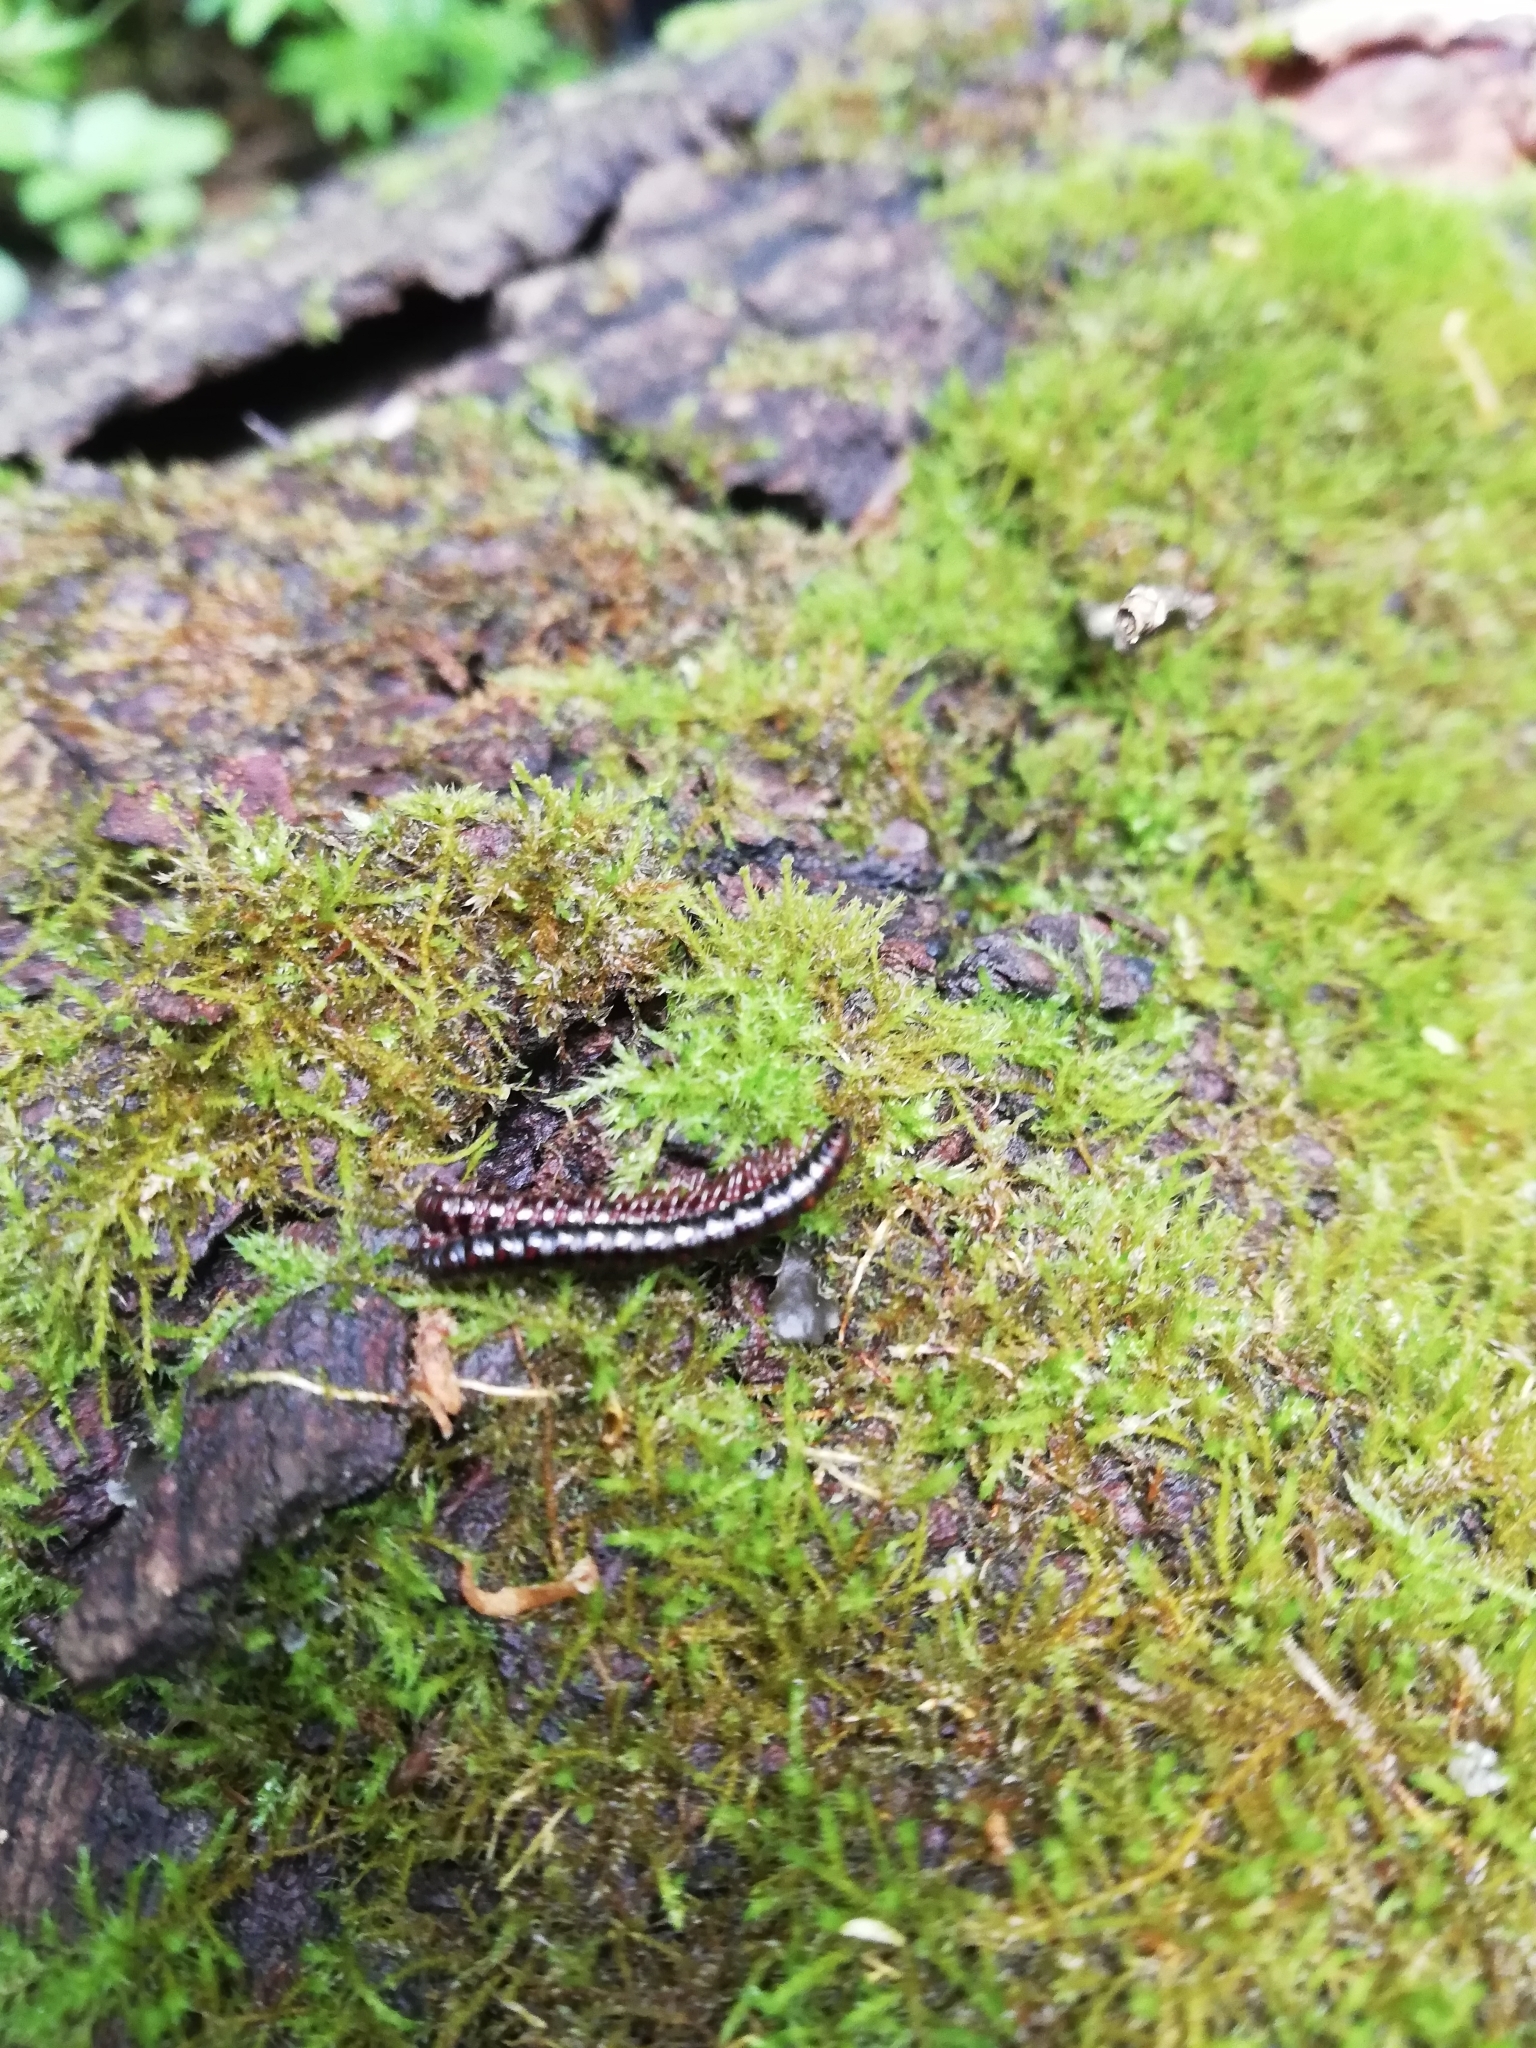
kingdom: Animalia
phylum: Arthropoda
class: Diplopoda
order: Polydesmida
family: Paradoxosomatidae
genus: Strongylosoma
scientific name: Strongylosoma stigmatosus
